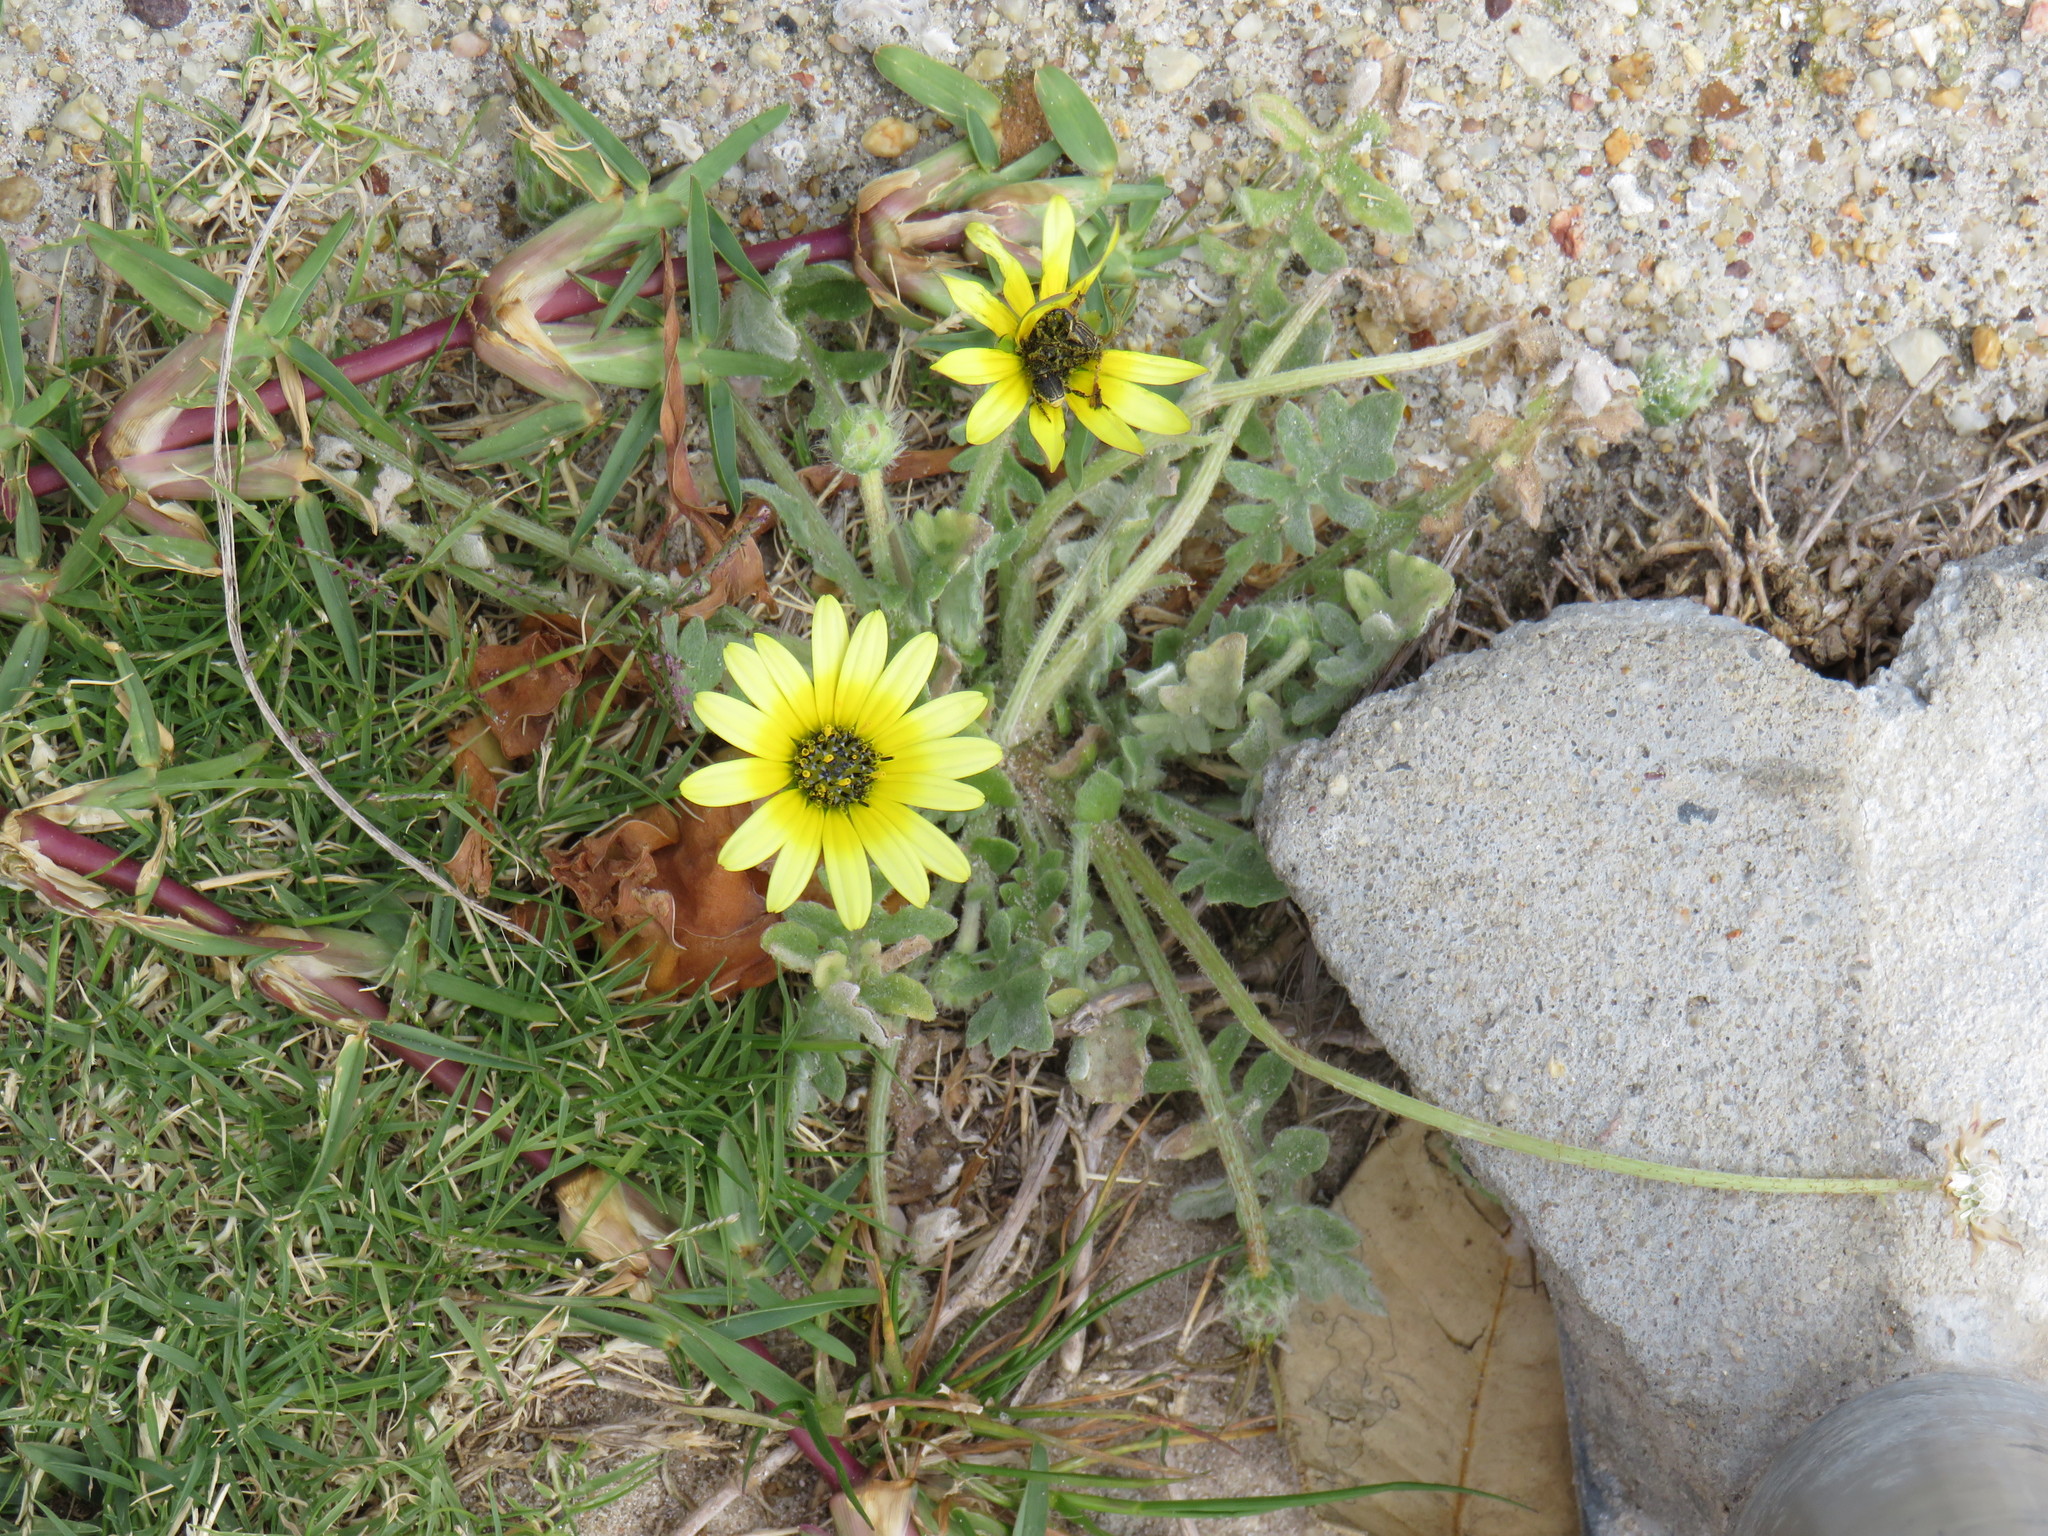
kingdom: Plantae
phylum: Tracheophyta
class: Magnoliopsida
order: Asterales
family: Asteraceae
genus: Arctotheca
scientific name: Arctotheca calendula
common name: Capeweed
